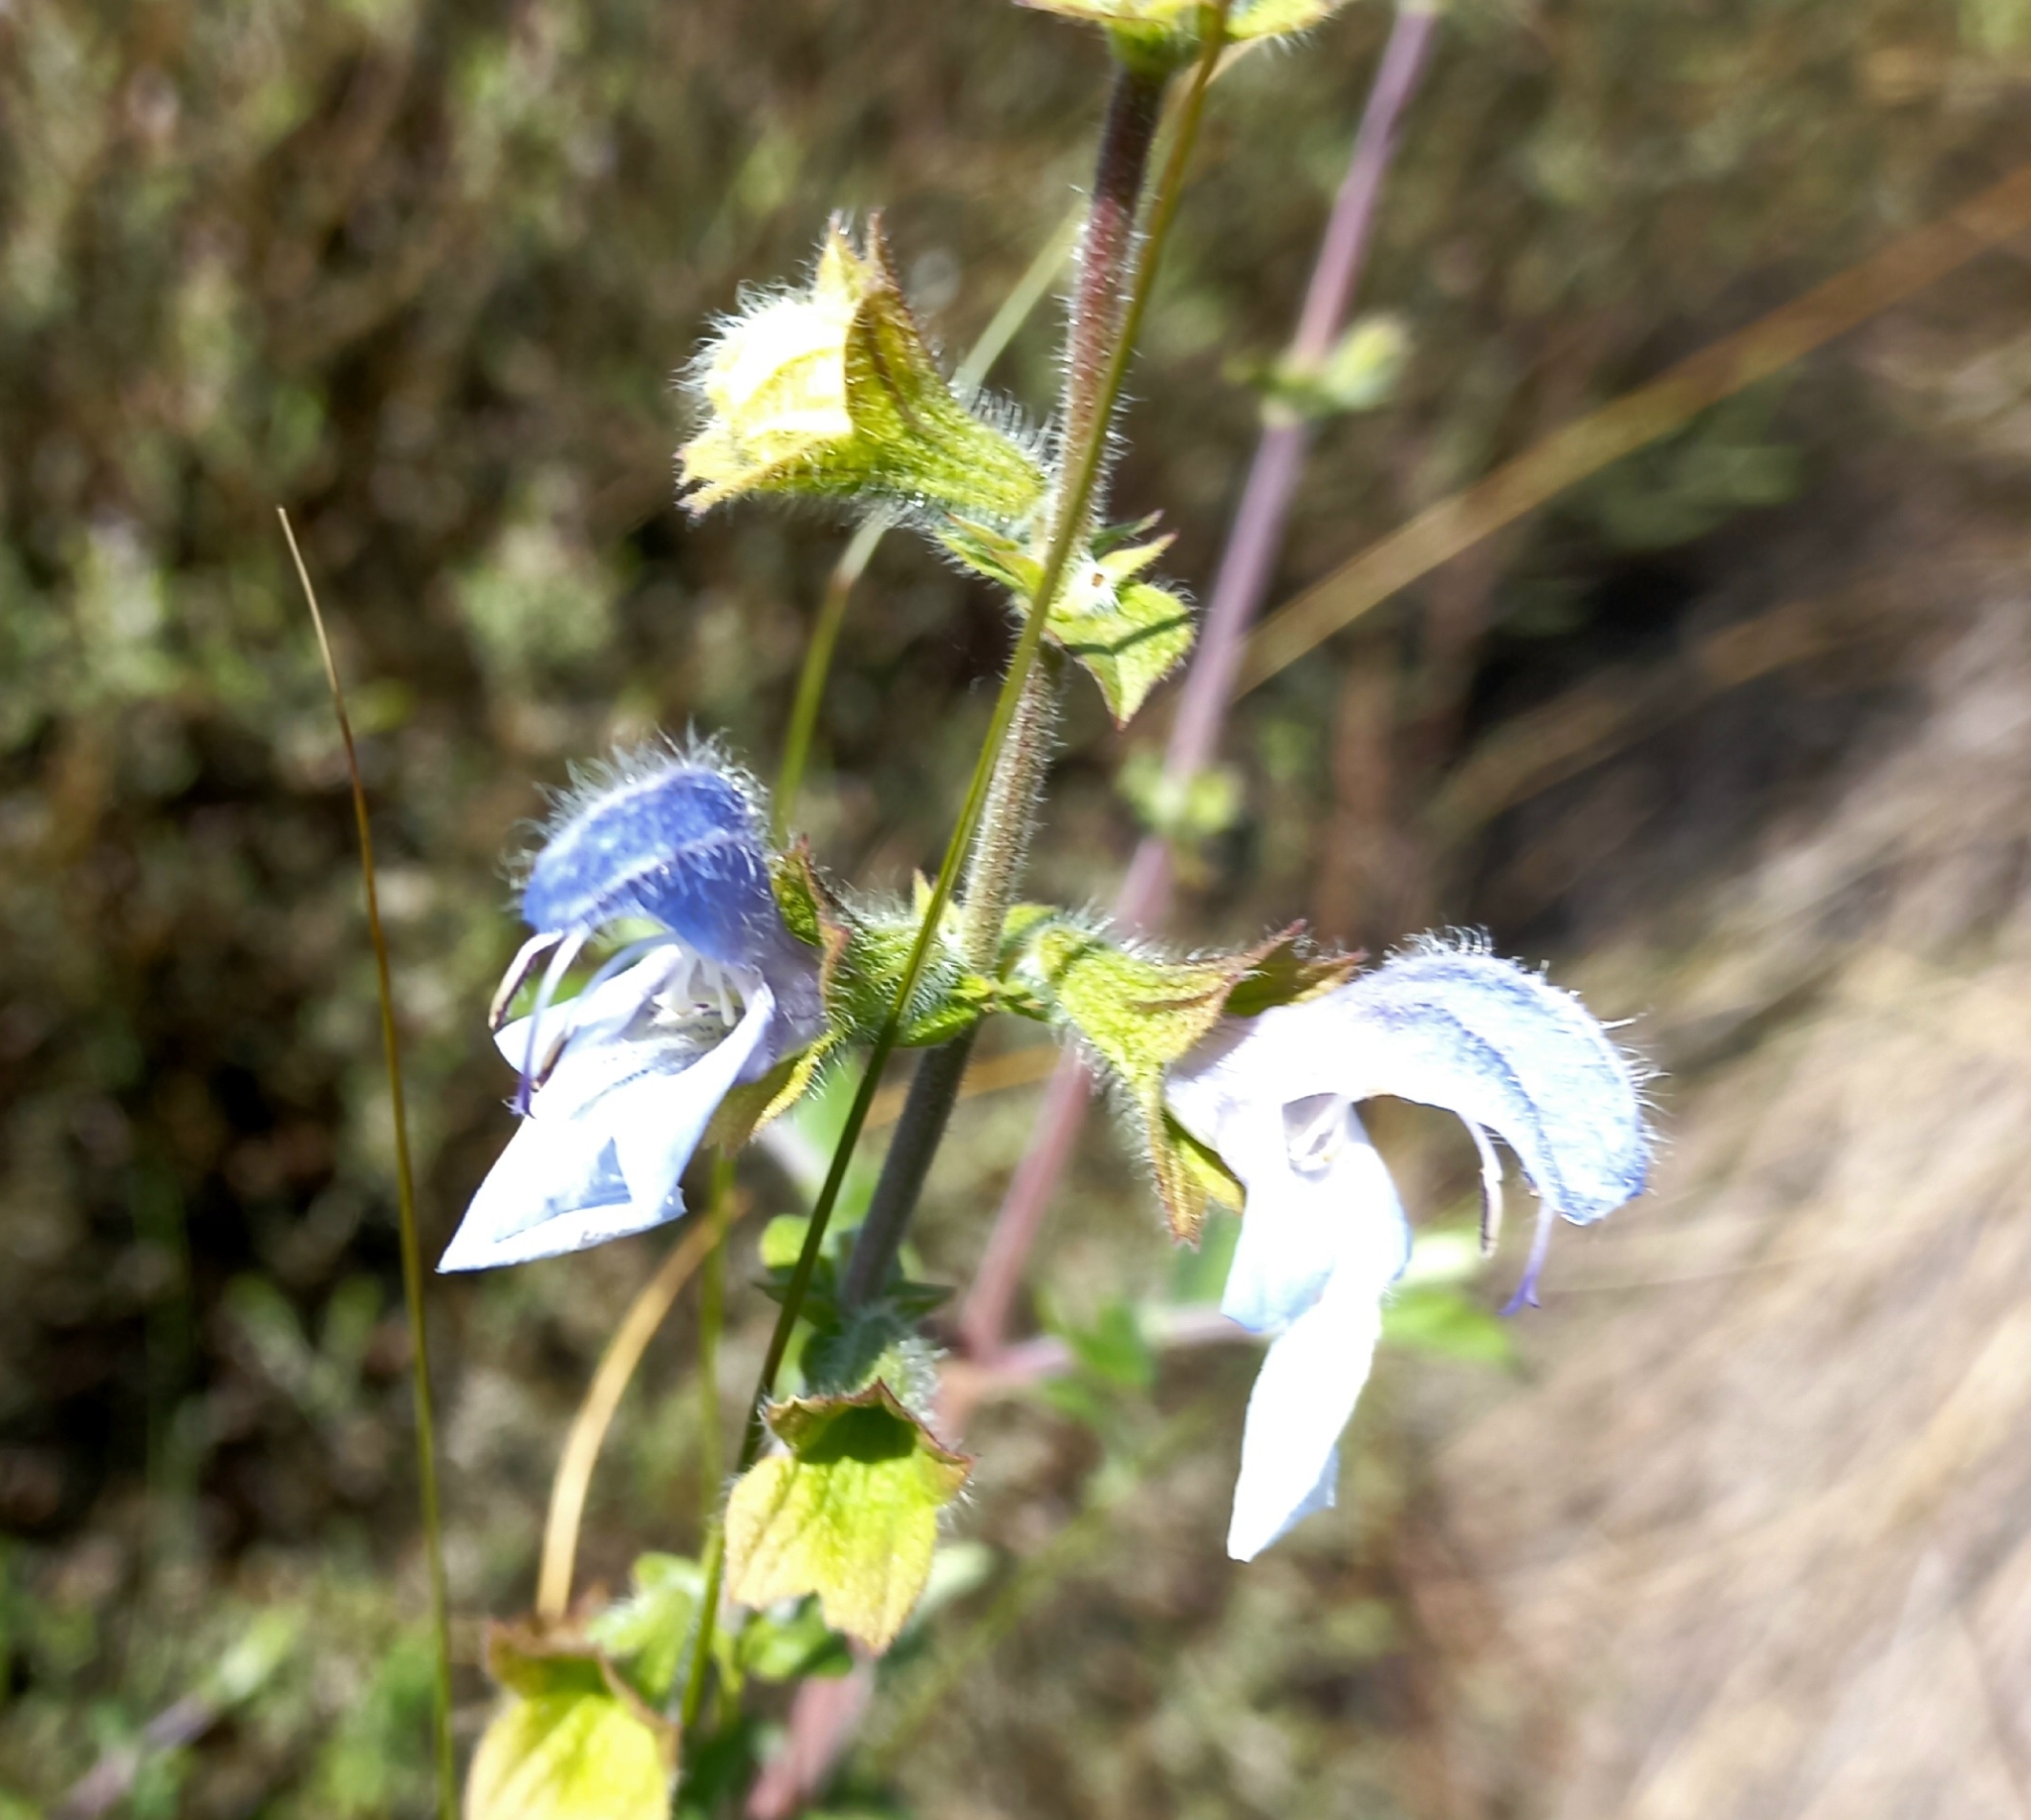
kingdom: Plantae
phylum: Tracheophyta
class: Magnoliopsida
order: Lamiales
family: Lamiaceae
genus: Salvia
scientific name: Salvia africana
